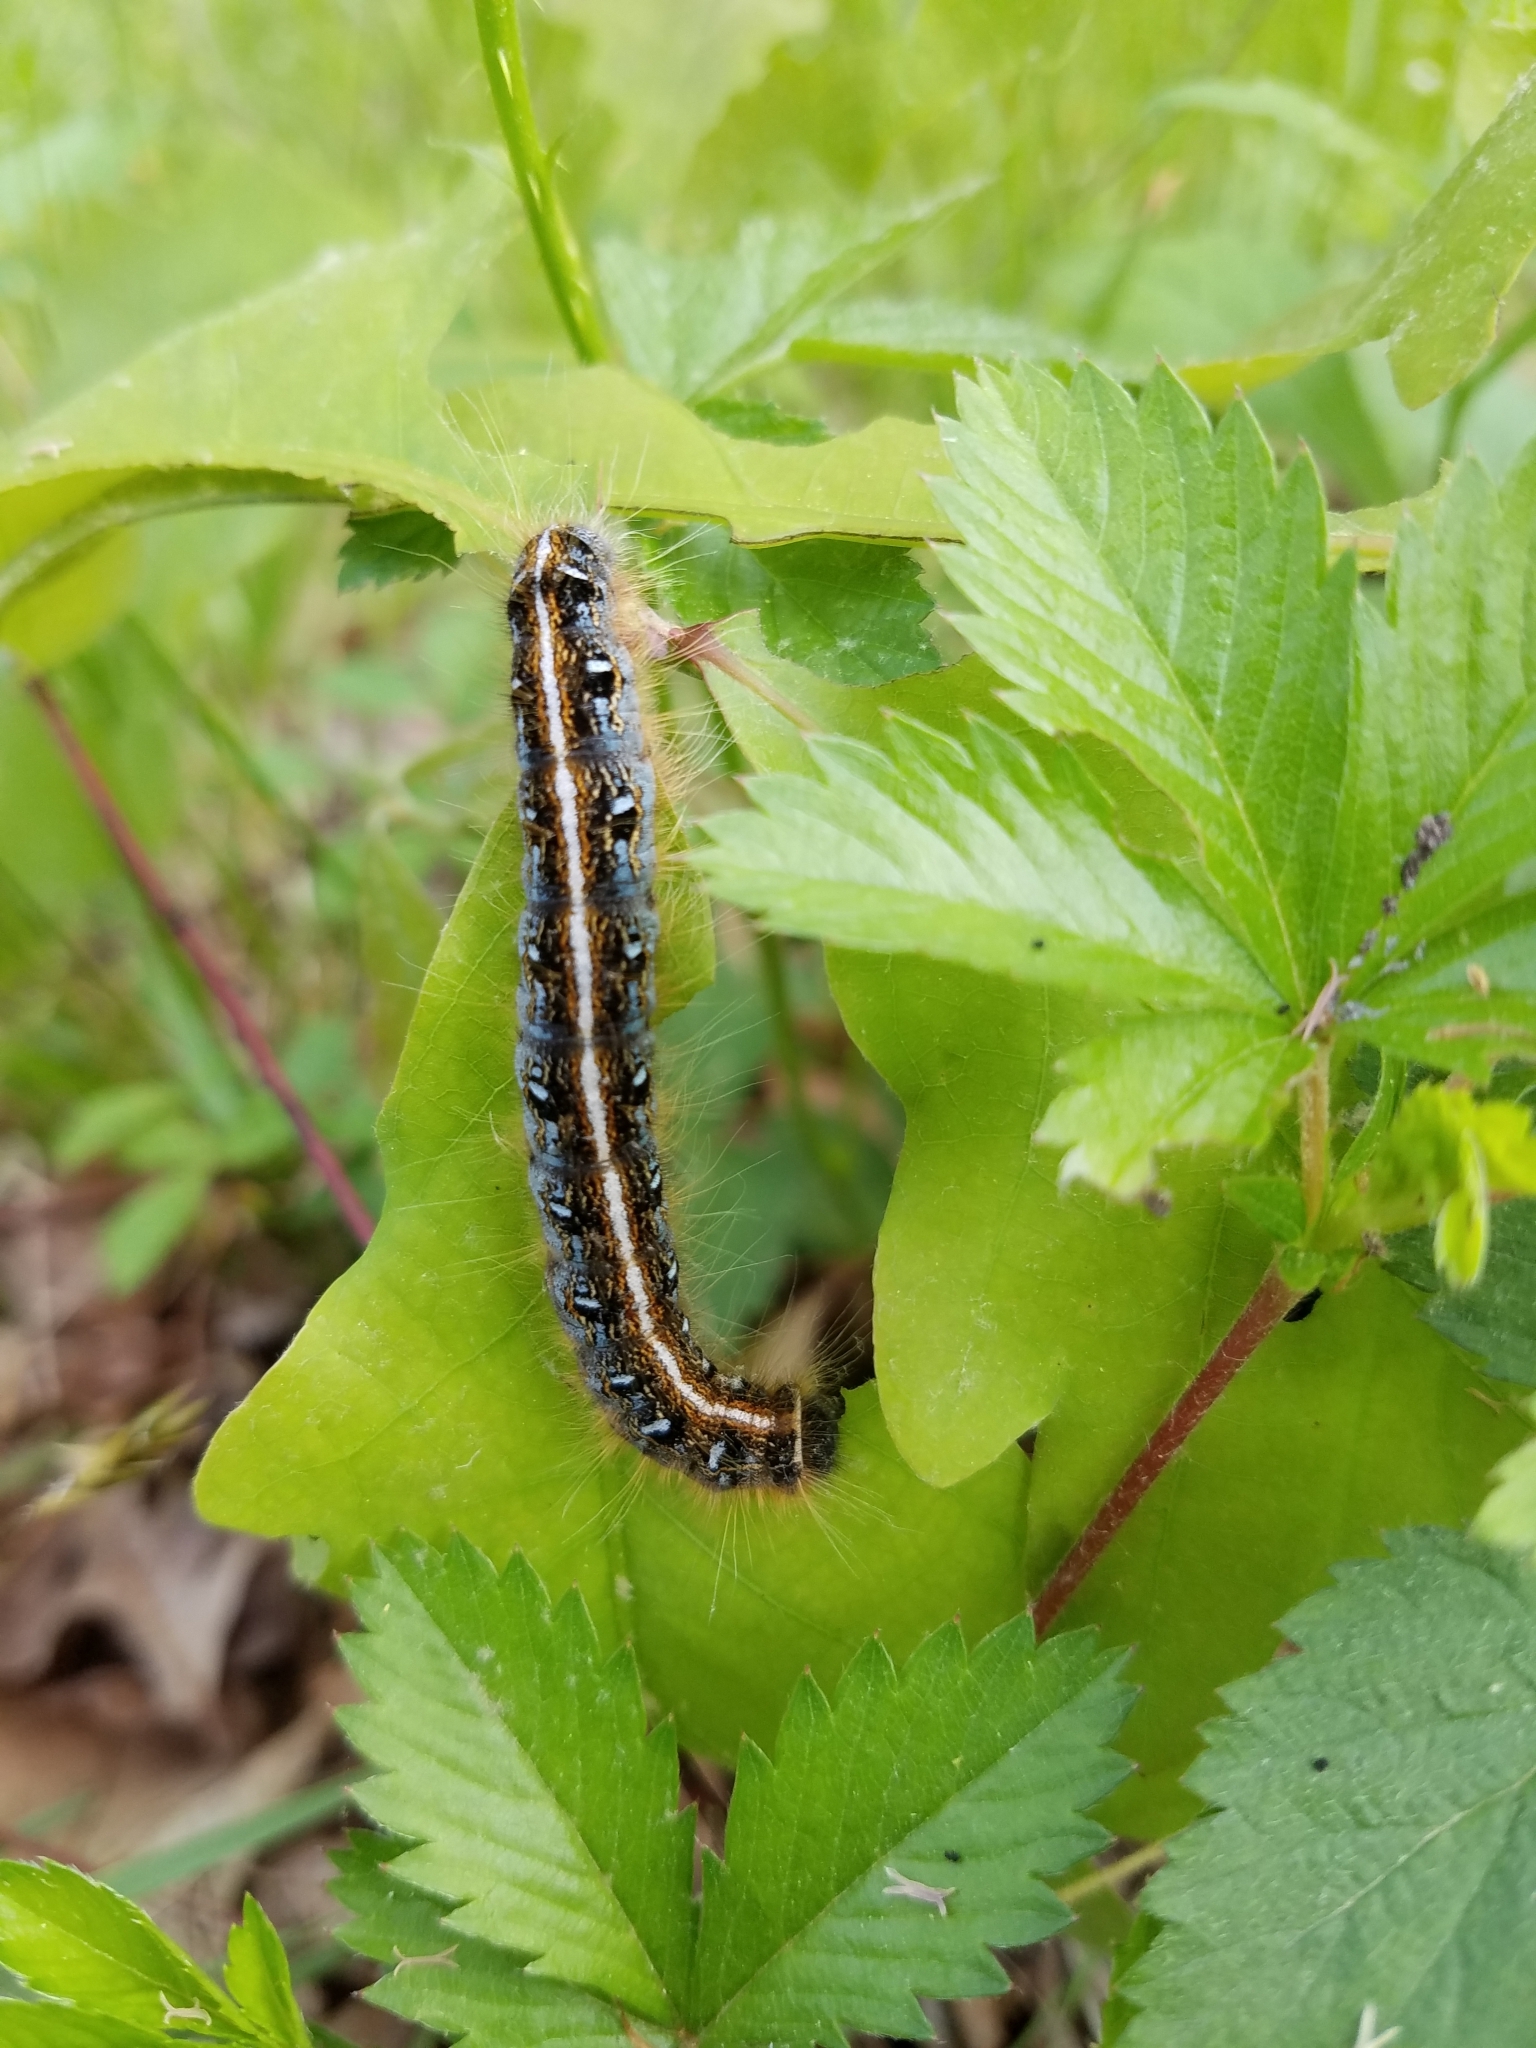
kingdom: Animalia
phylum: Arthropoda
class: Insecta
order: Lepidoptera
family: Lasiocampidae
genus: Malacosoma
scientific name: Malacosoma americana
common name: Eastern tent caterpillar moth
